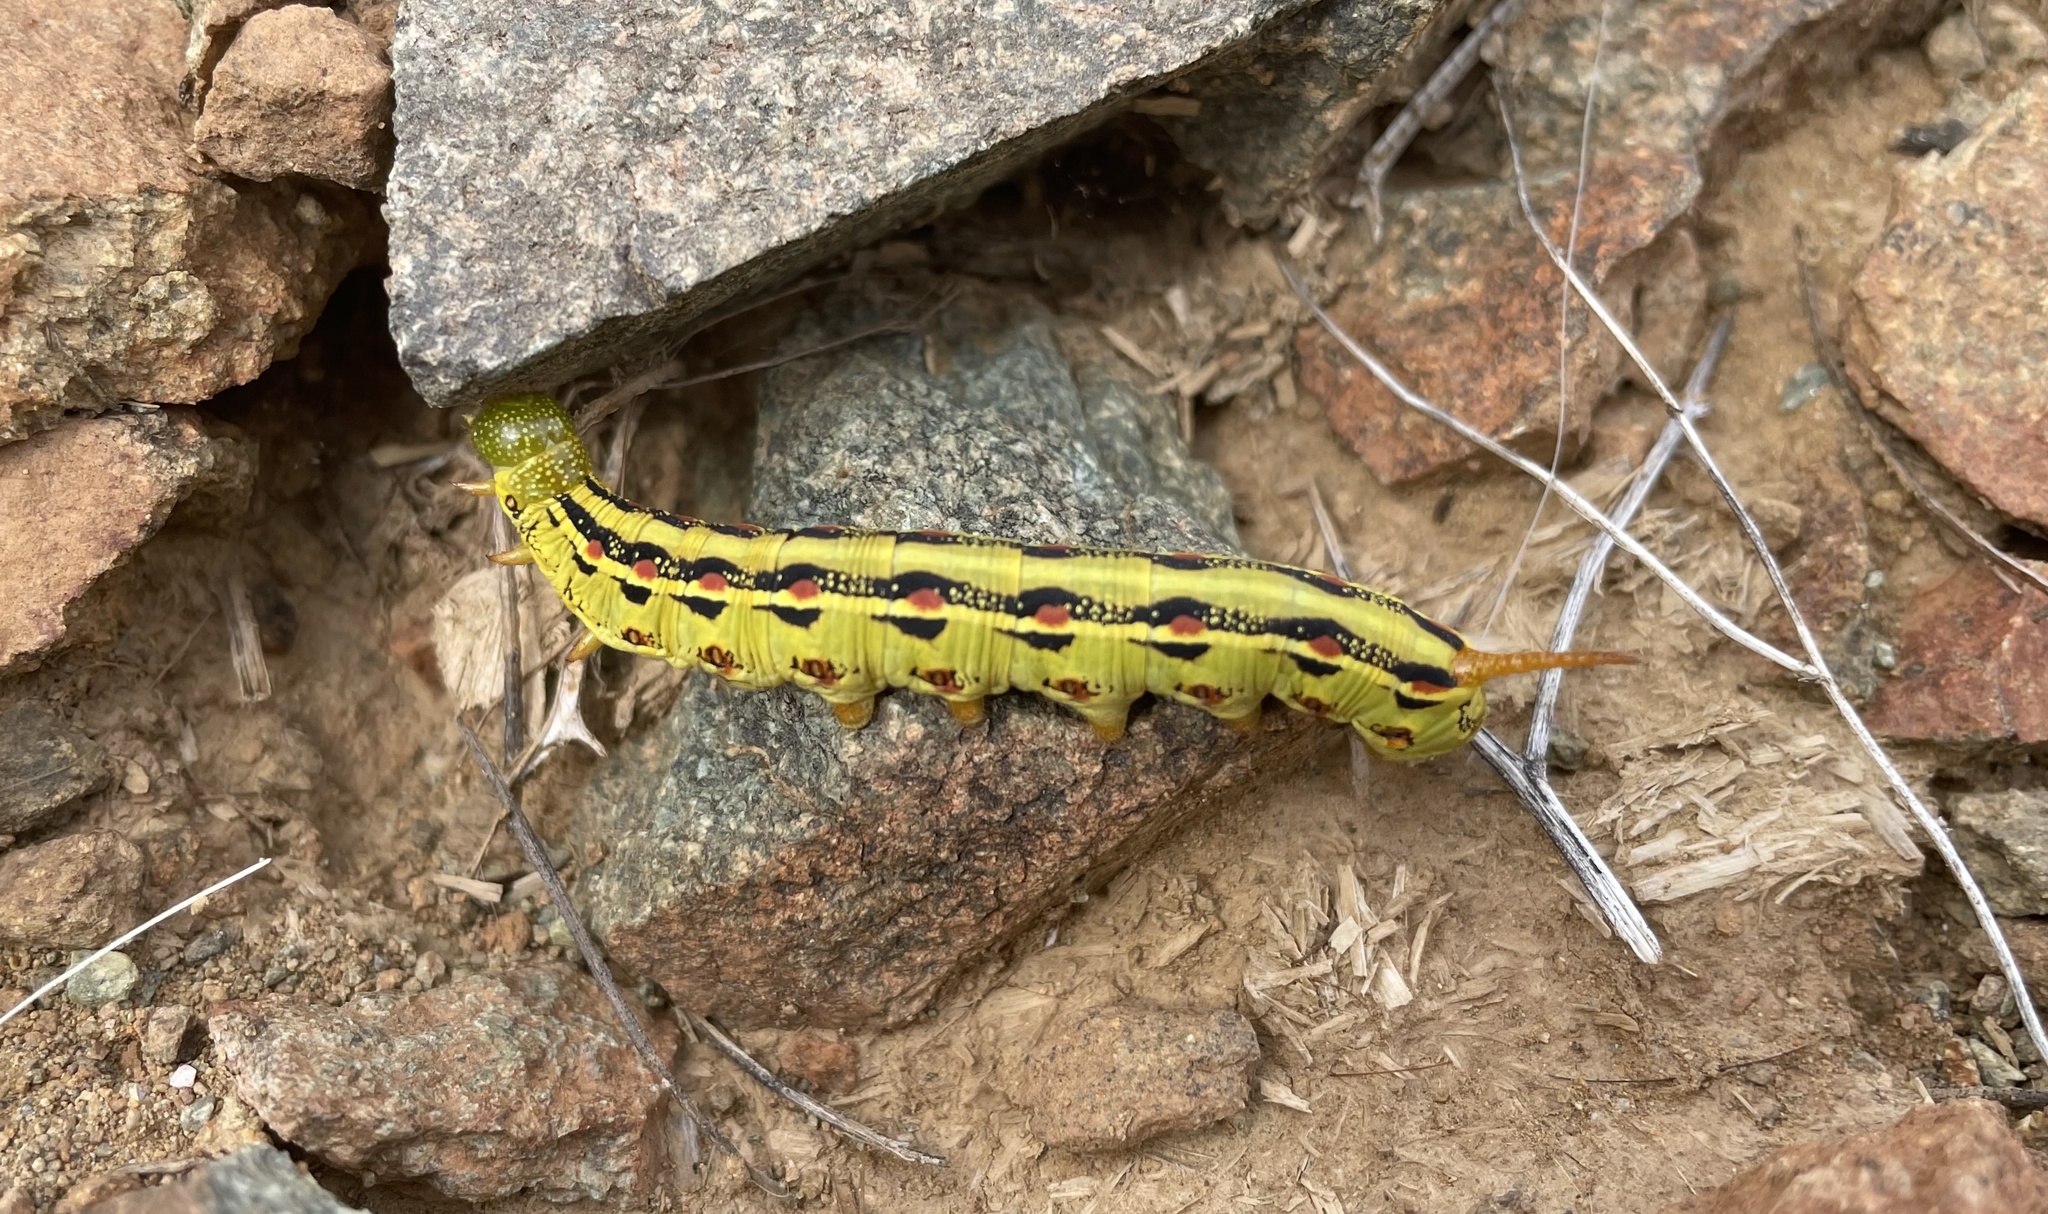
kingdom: Animalia
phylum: Arthropoda
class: Insecta
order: Lepidoptera
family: Sphingidae
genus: Hyles
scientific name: Hyles lineata
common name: White-lined sphinx
